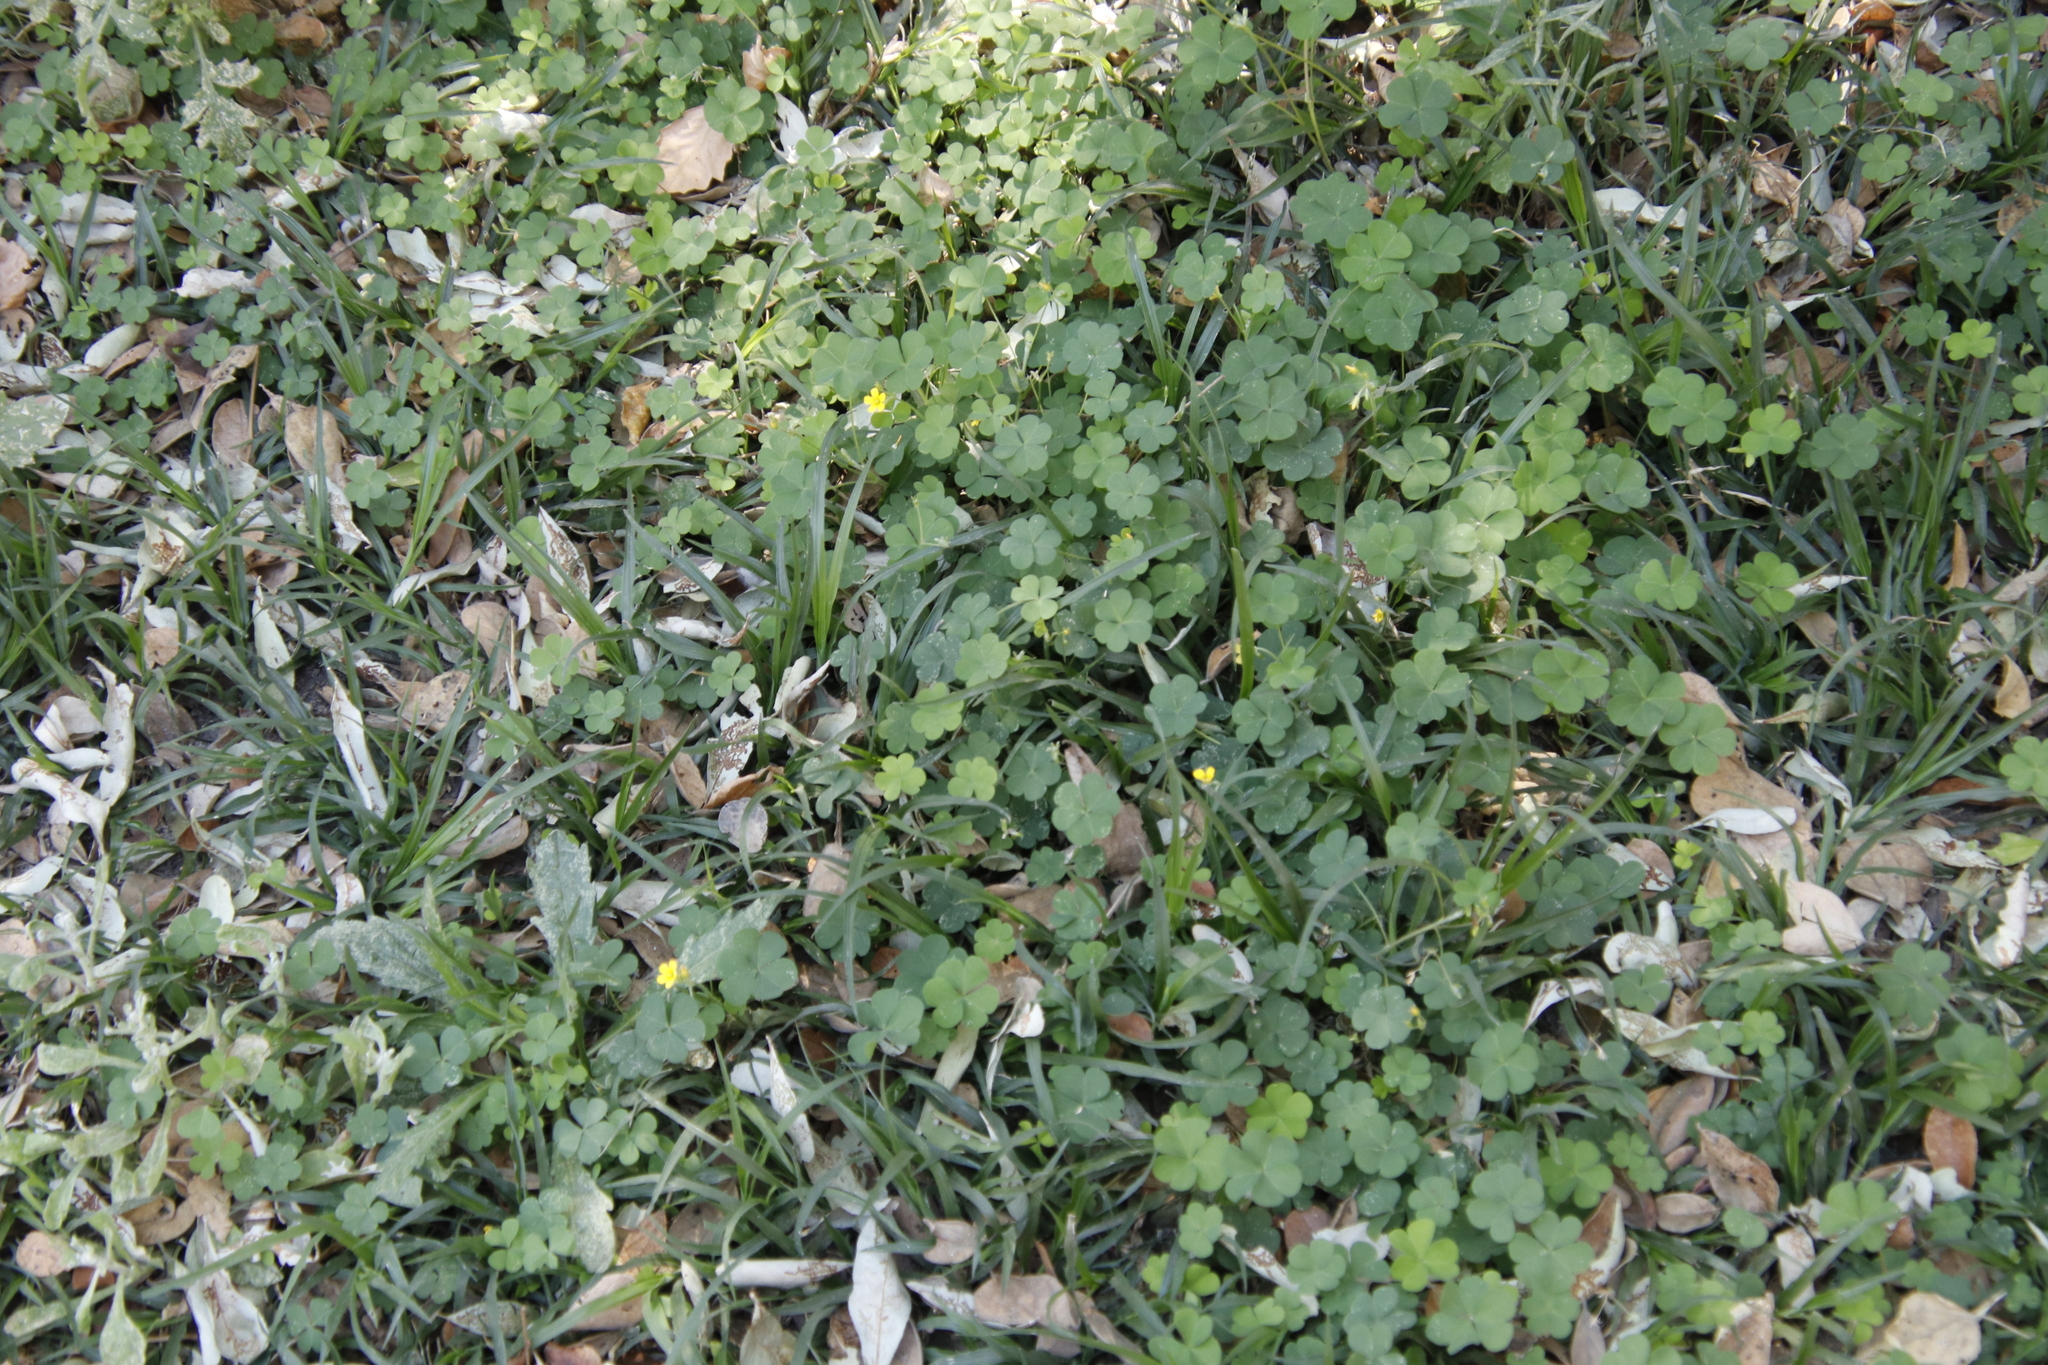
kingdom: Plantae
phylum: Tracheophyta
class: Magnoliopsida
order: Oxalidales
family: Oxalidaceae
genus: Oxalis
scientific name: Oxalis corniculata
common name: Procumbent yellow-sorrel
